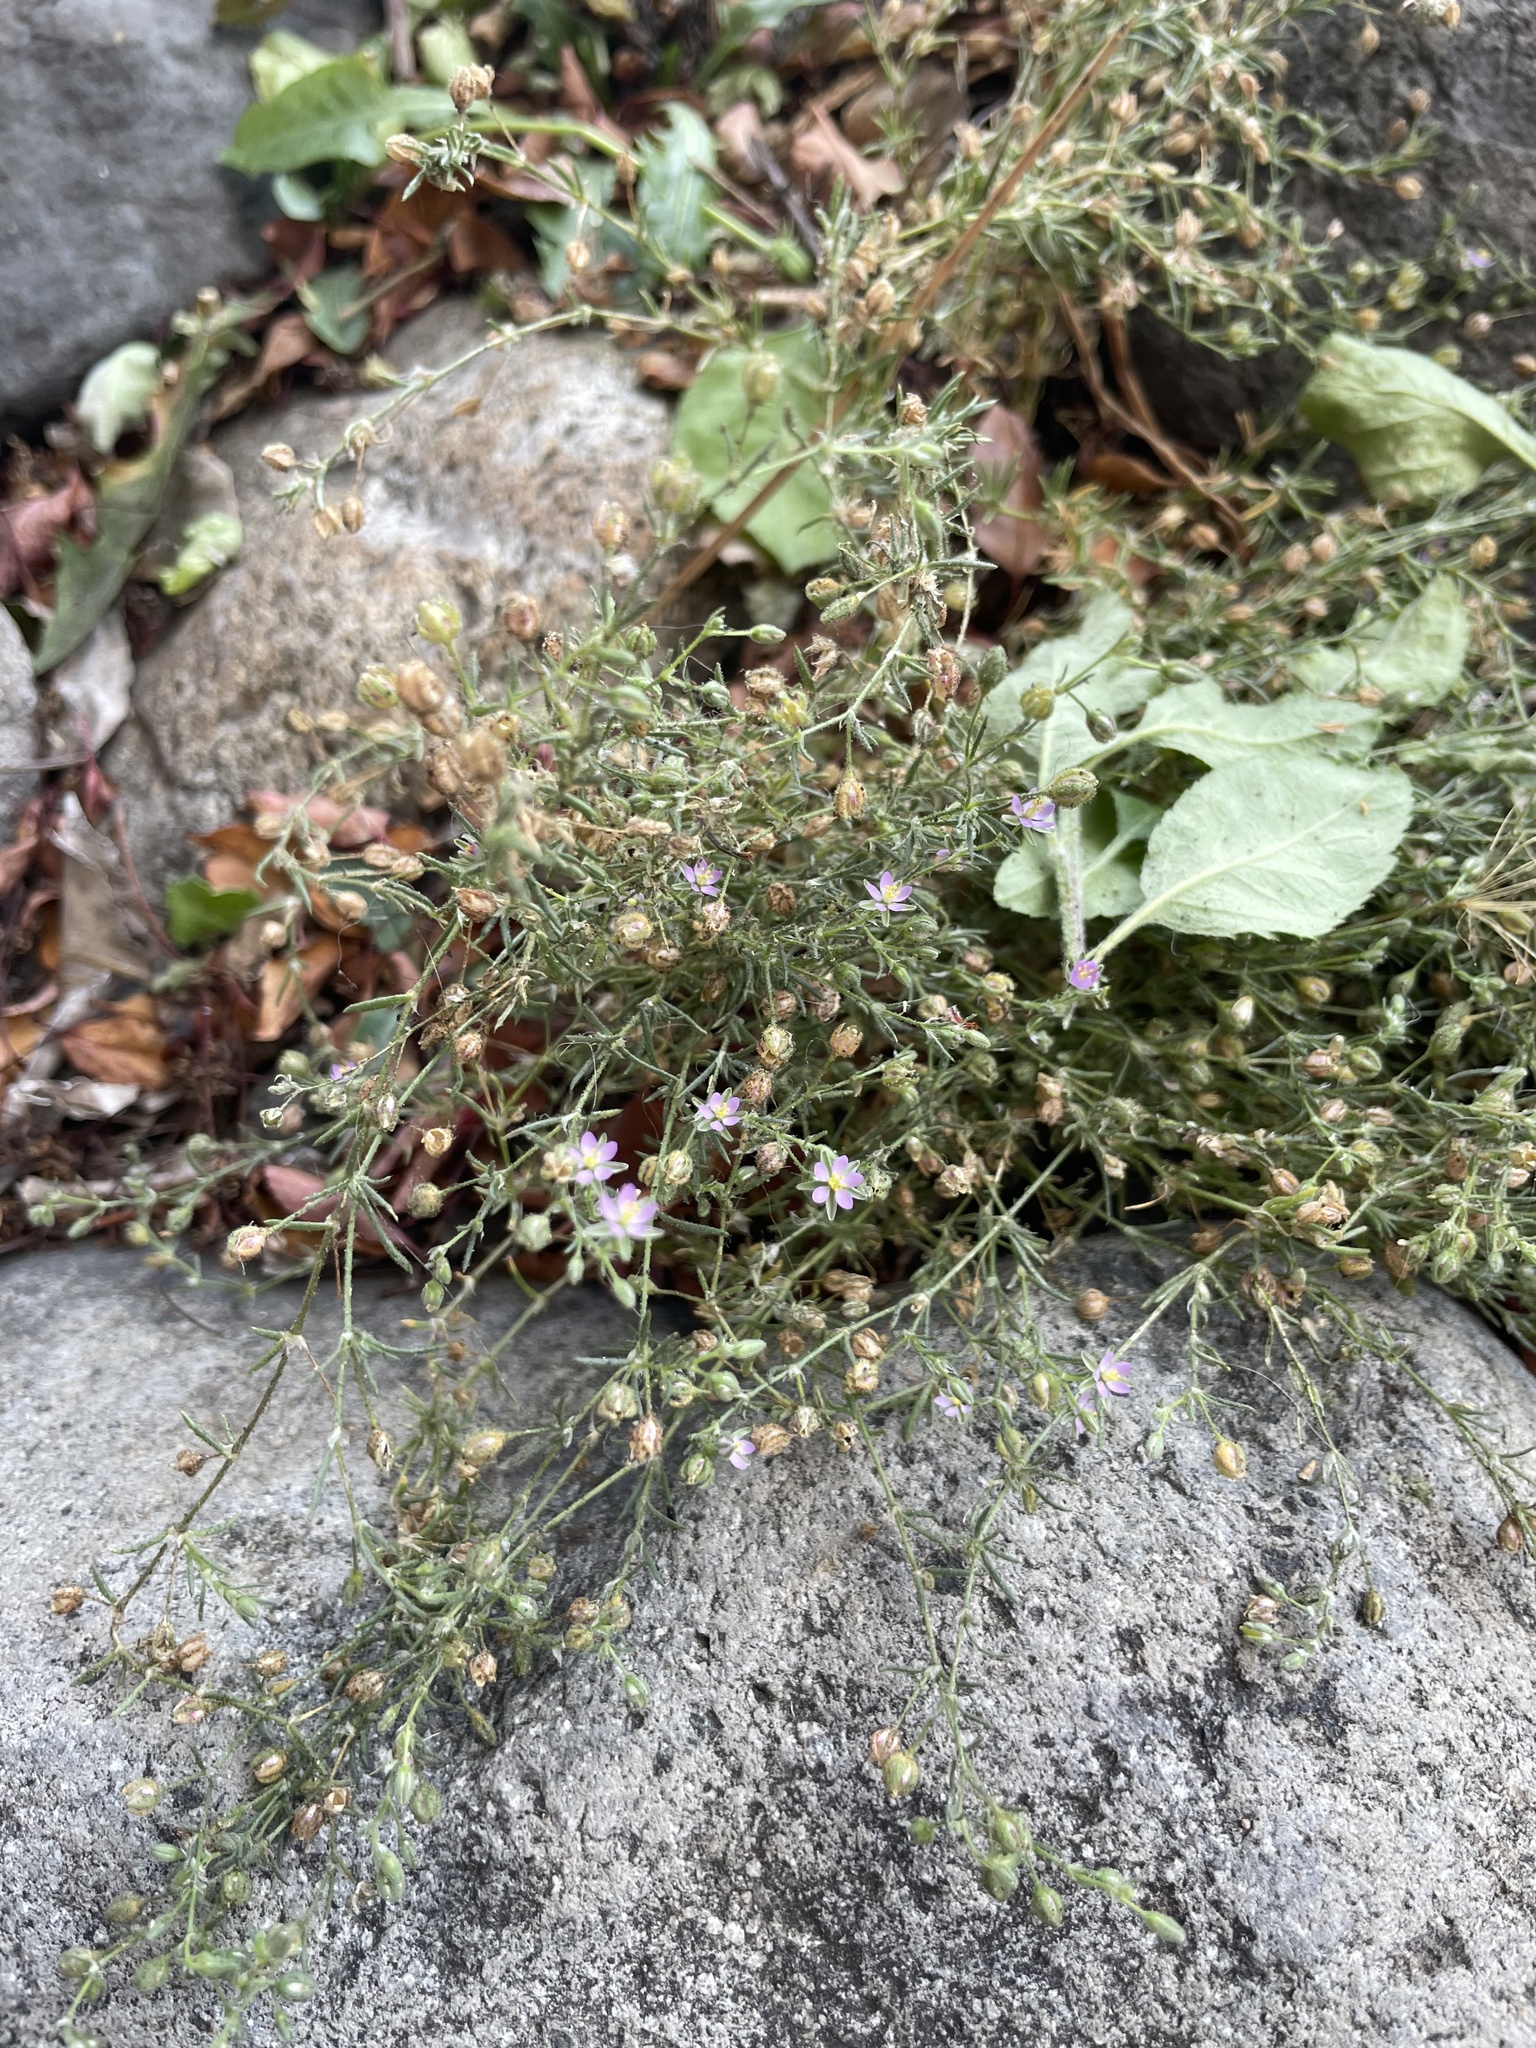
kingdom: Plantae
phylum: Tracheophyta
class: Magnoliopsida
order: Caryophyllales
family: Caryophyllaceae
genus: Spergularia
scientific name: Spergularia rubra
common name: Red sand-spurrey
